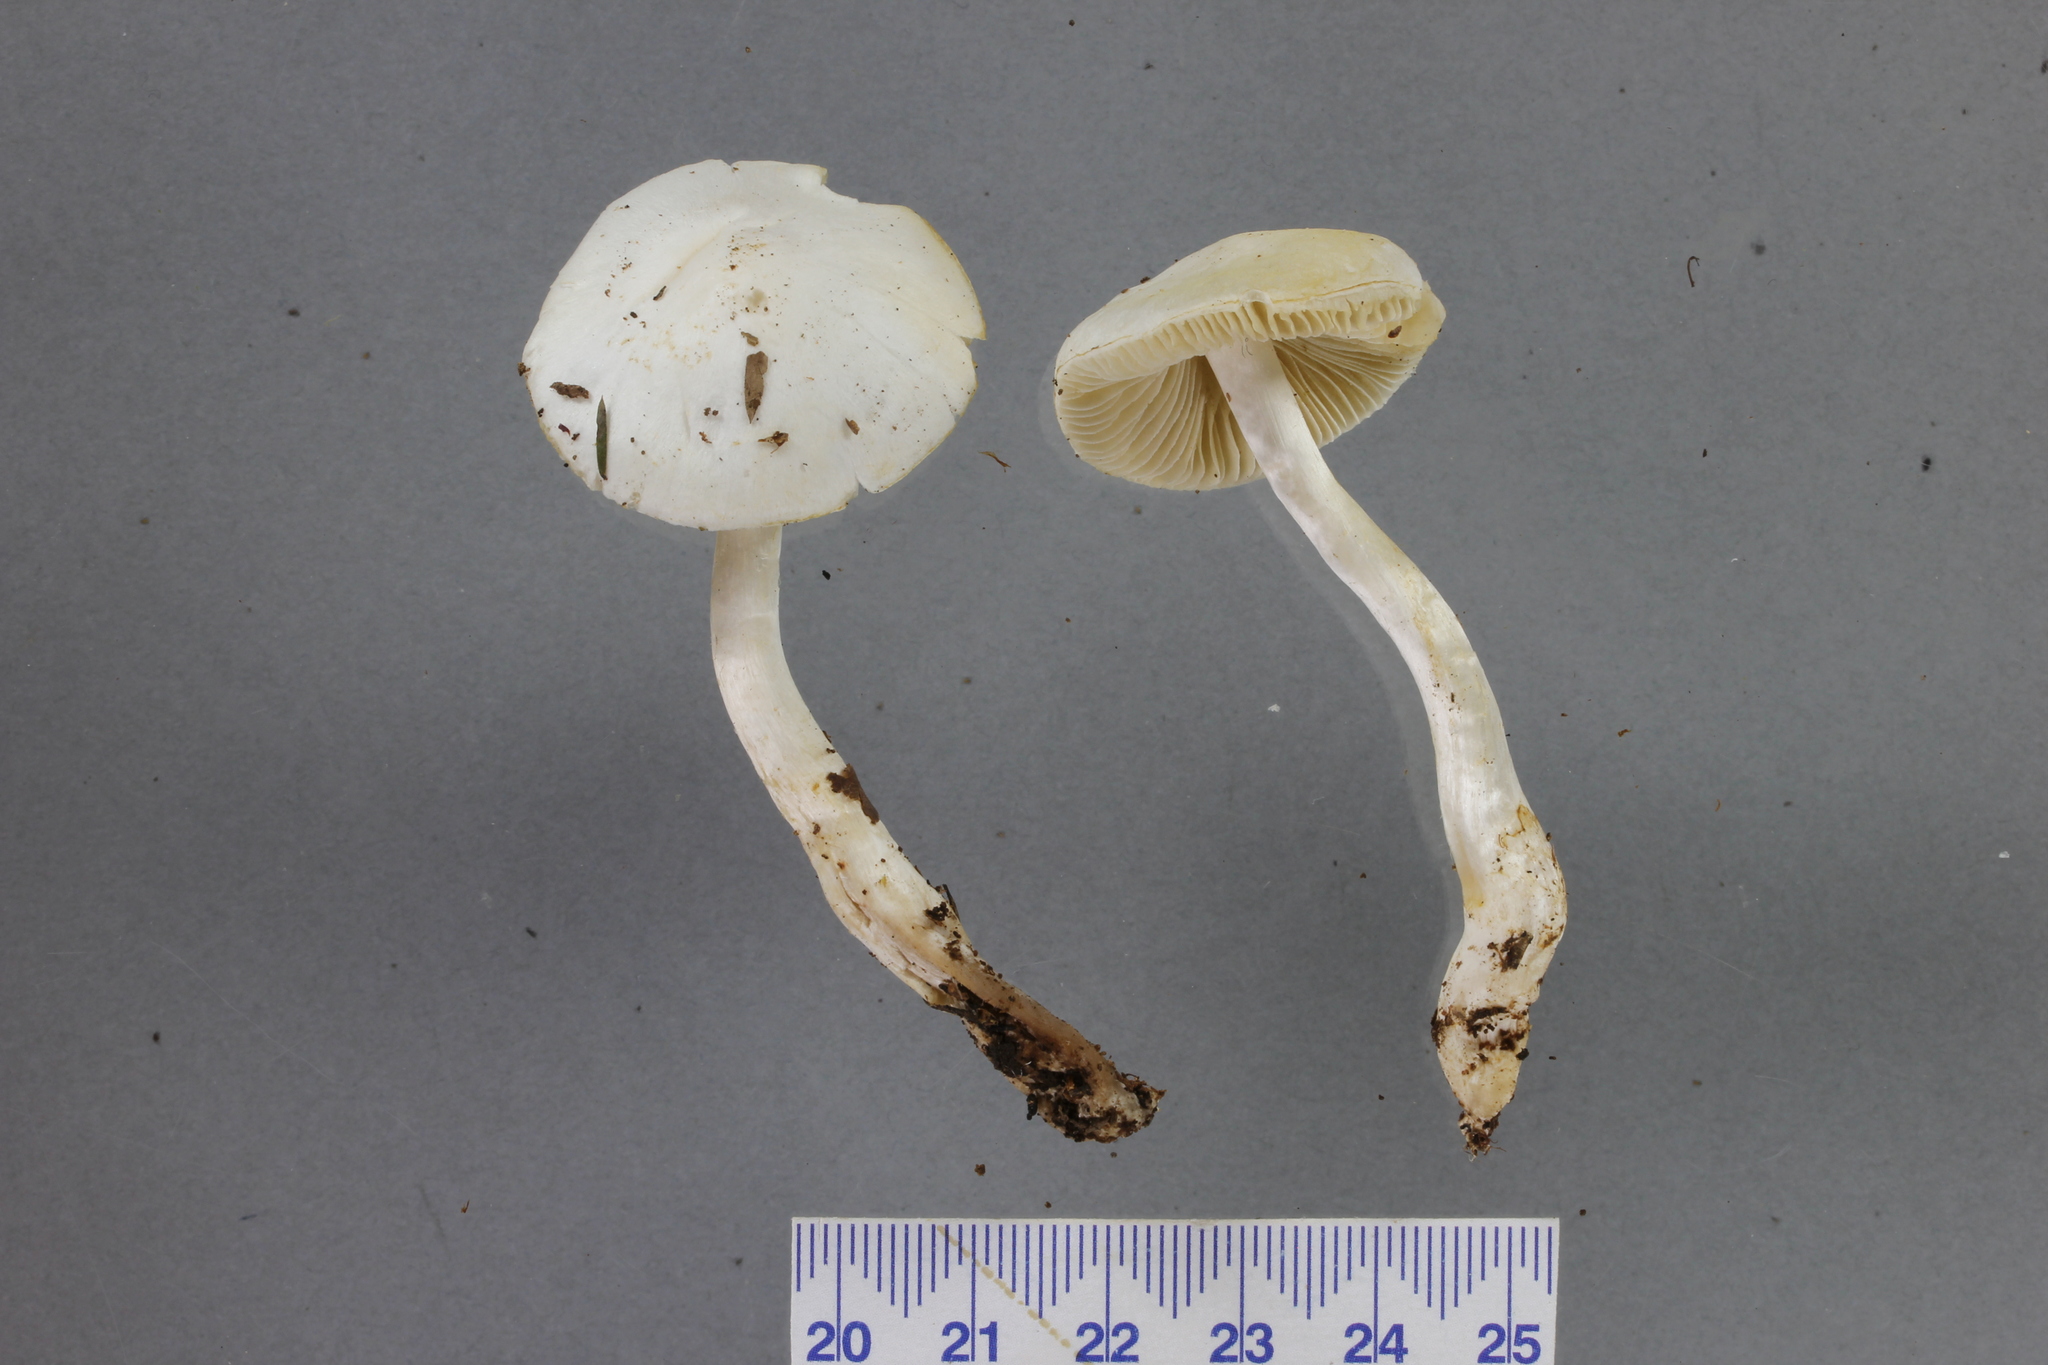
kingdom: Fungi
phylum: Basidiomycota
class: Agaricomycetes
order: Agaricales
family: Cortinariaceae
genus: Thaxterogaster
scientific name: Thaxterogaster olorinatus
